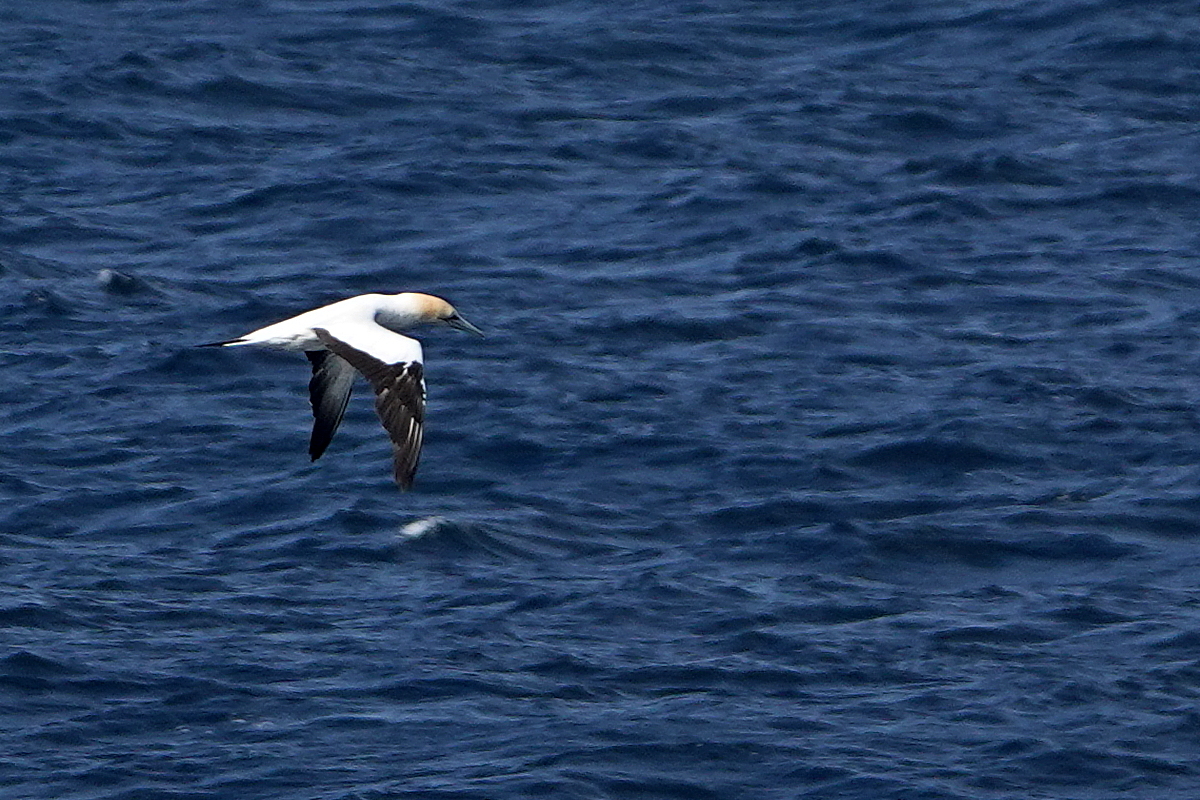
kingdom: Animalia
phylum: Chordata
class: Aves
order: Suliformes
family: Sulidae
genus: Morus
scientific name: Morus serrator
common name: Australasian gannet
